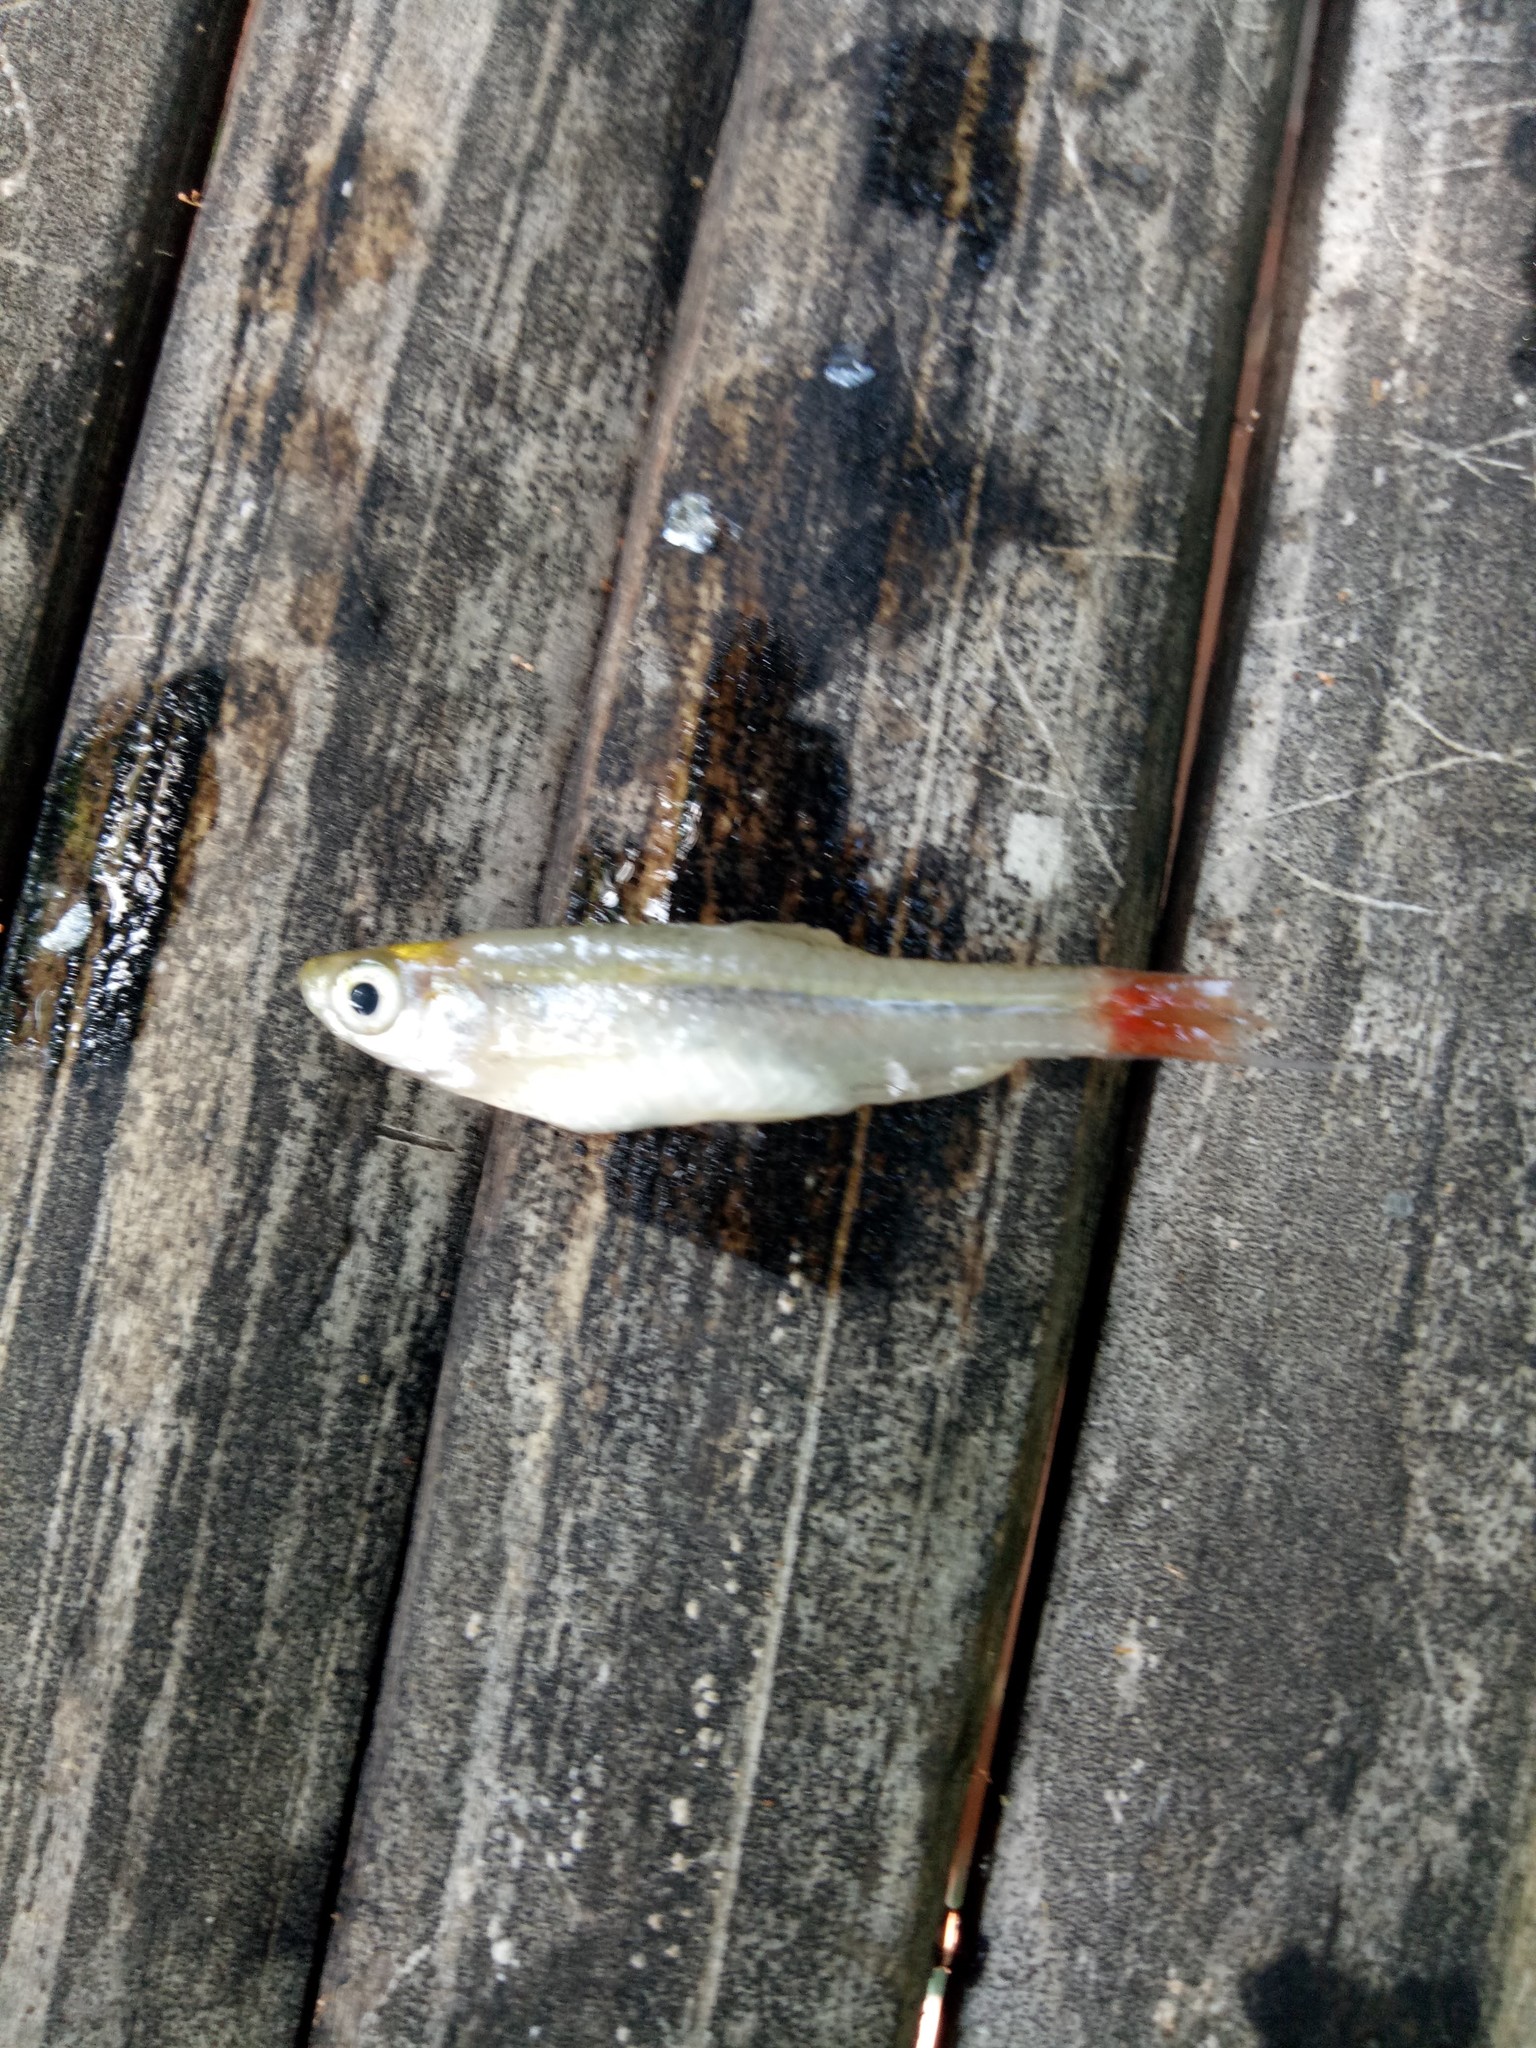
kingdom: Animalia
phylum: Chordata
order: Cypriniformes
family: Cyprinidae
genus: Rasbora
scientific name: Rasbora borapetensis
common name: Blackline rasbora
